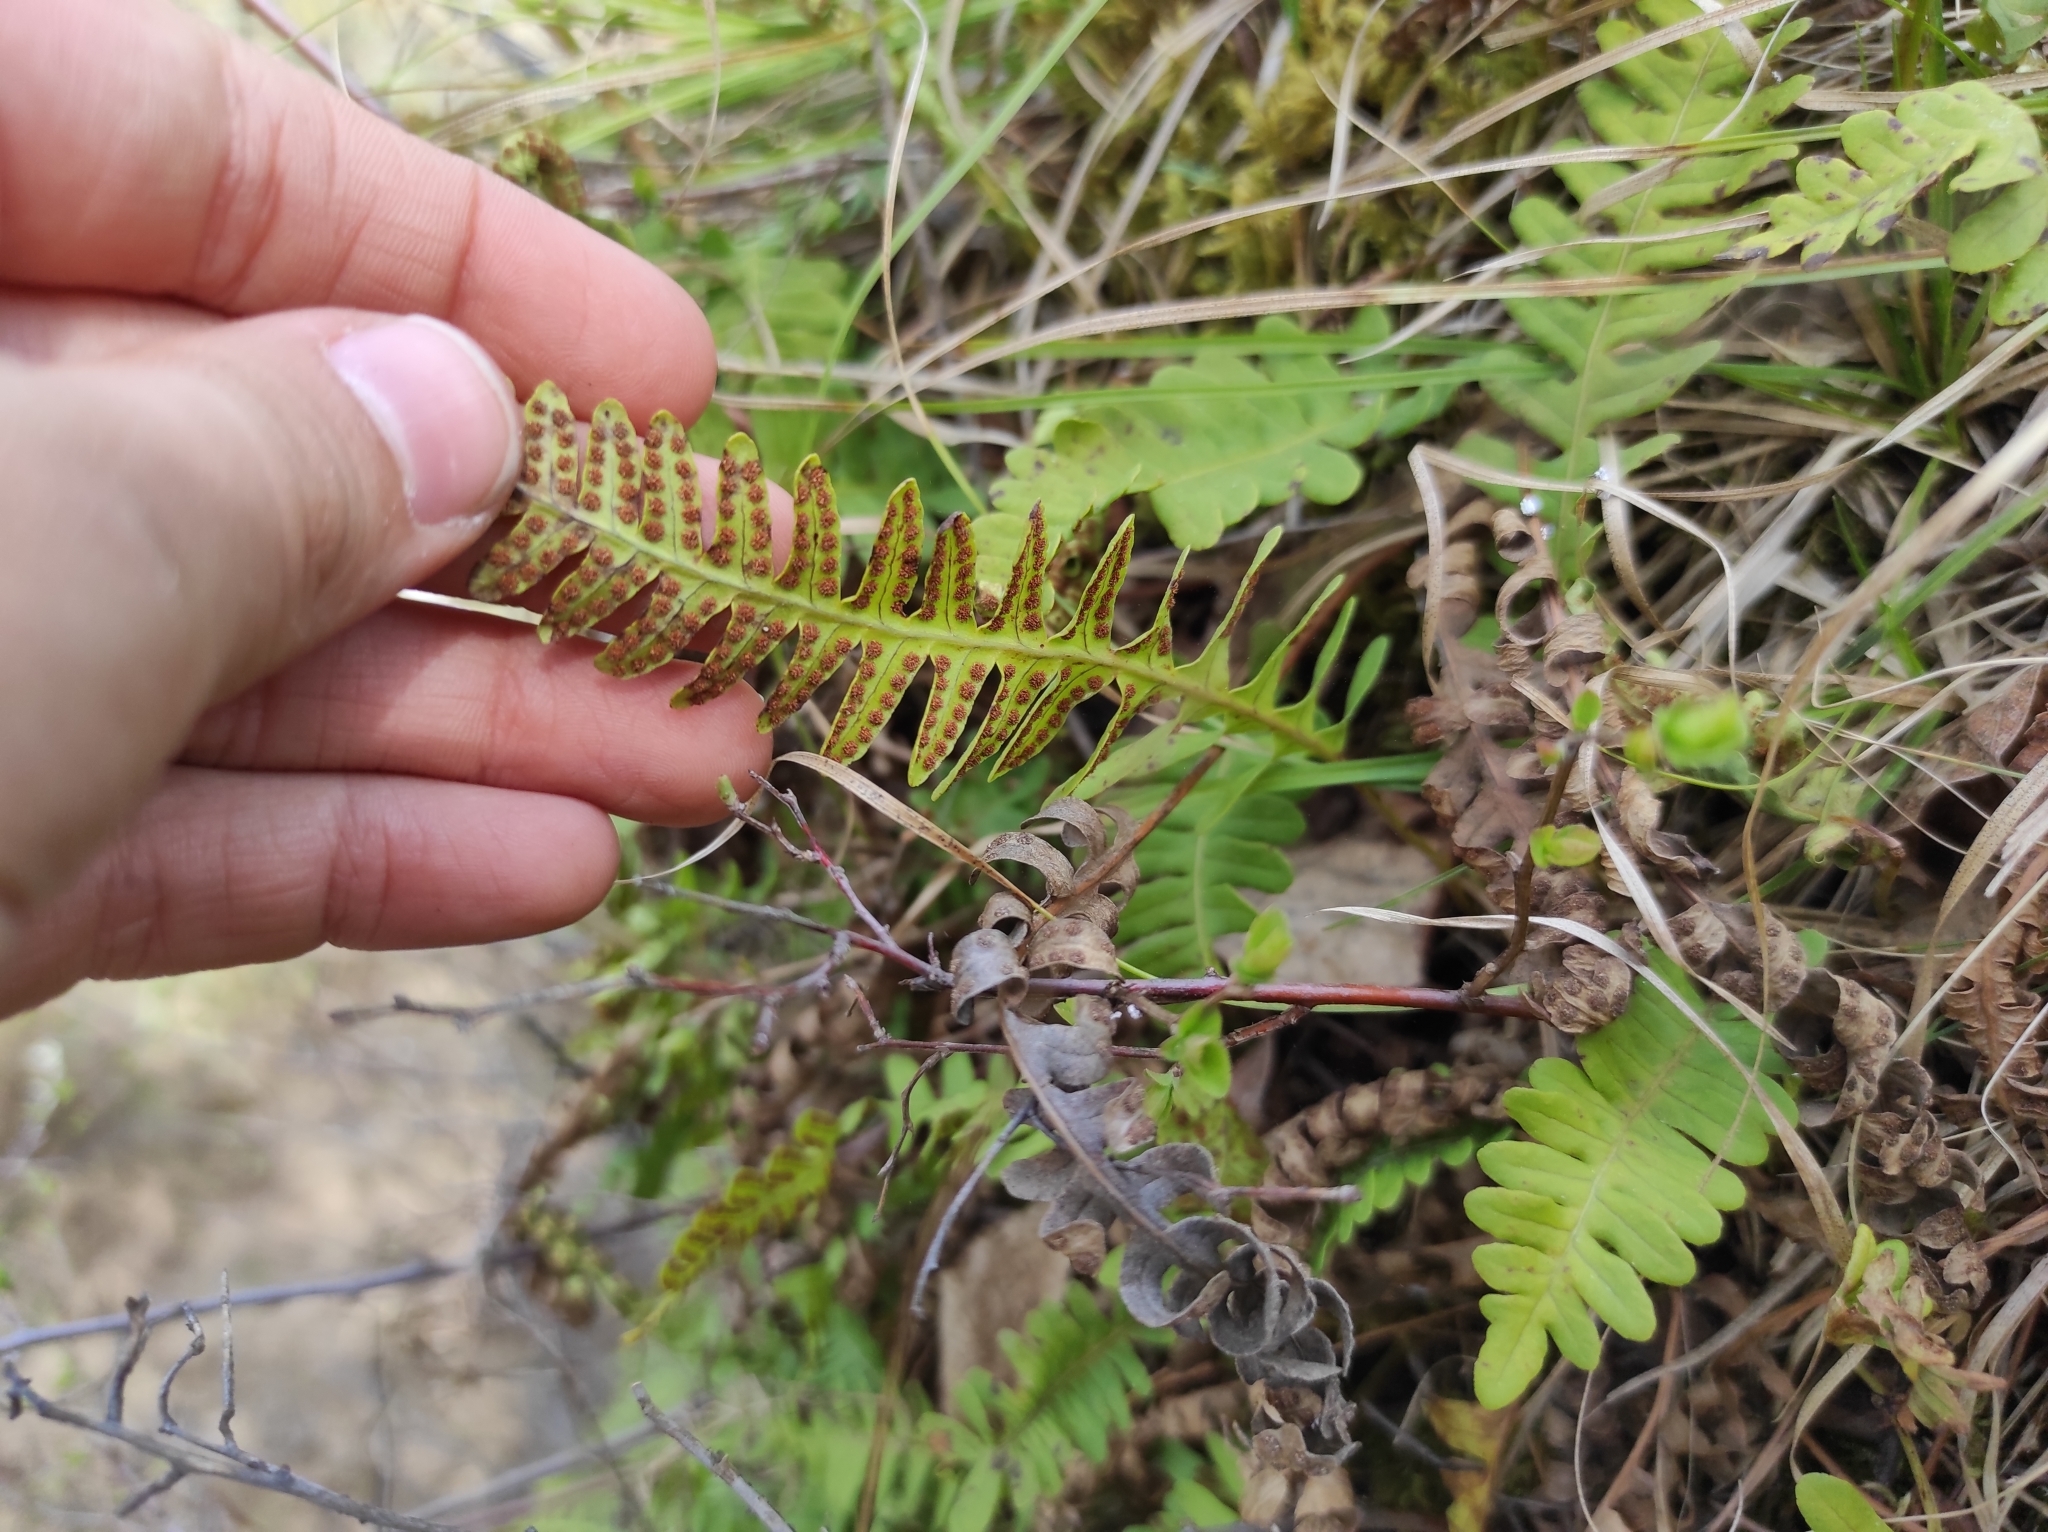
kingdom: Plantae
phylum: Tracheophyta
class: Polypodiopsida
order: Polypodiales
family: Polypodiaceae
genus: Polypodium
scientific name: Polypodium sibiricum
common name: Siberian polypody
